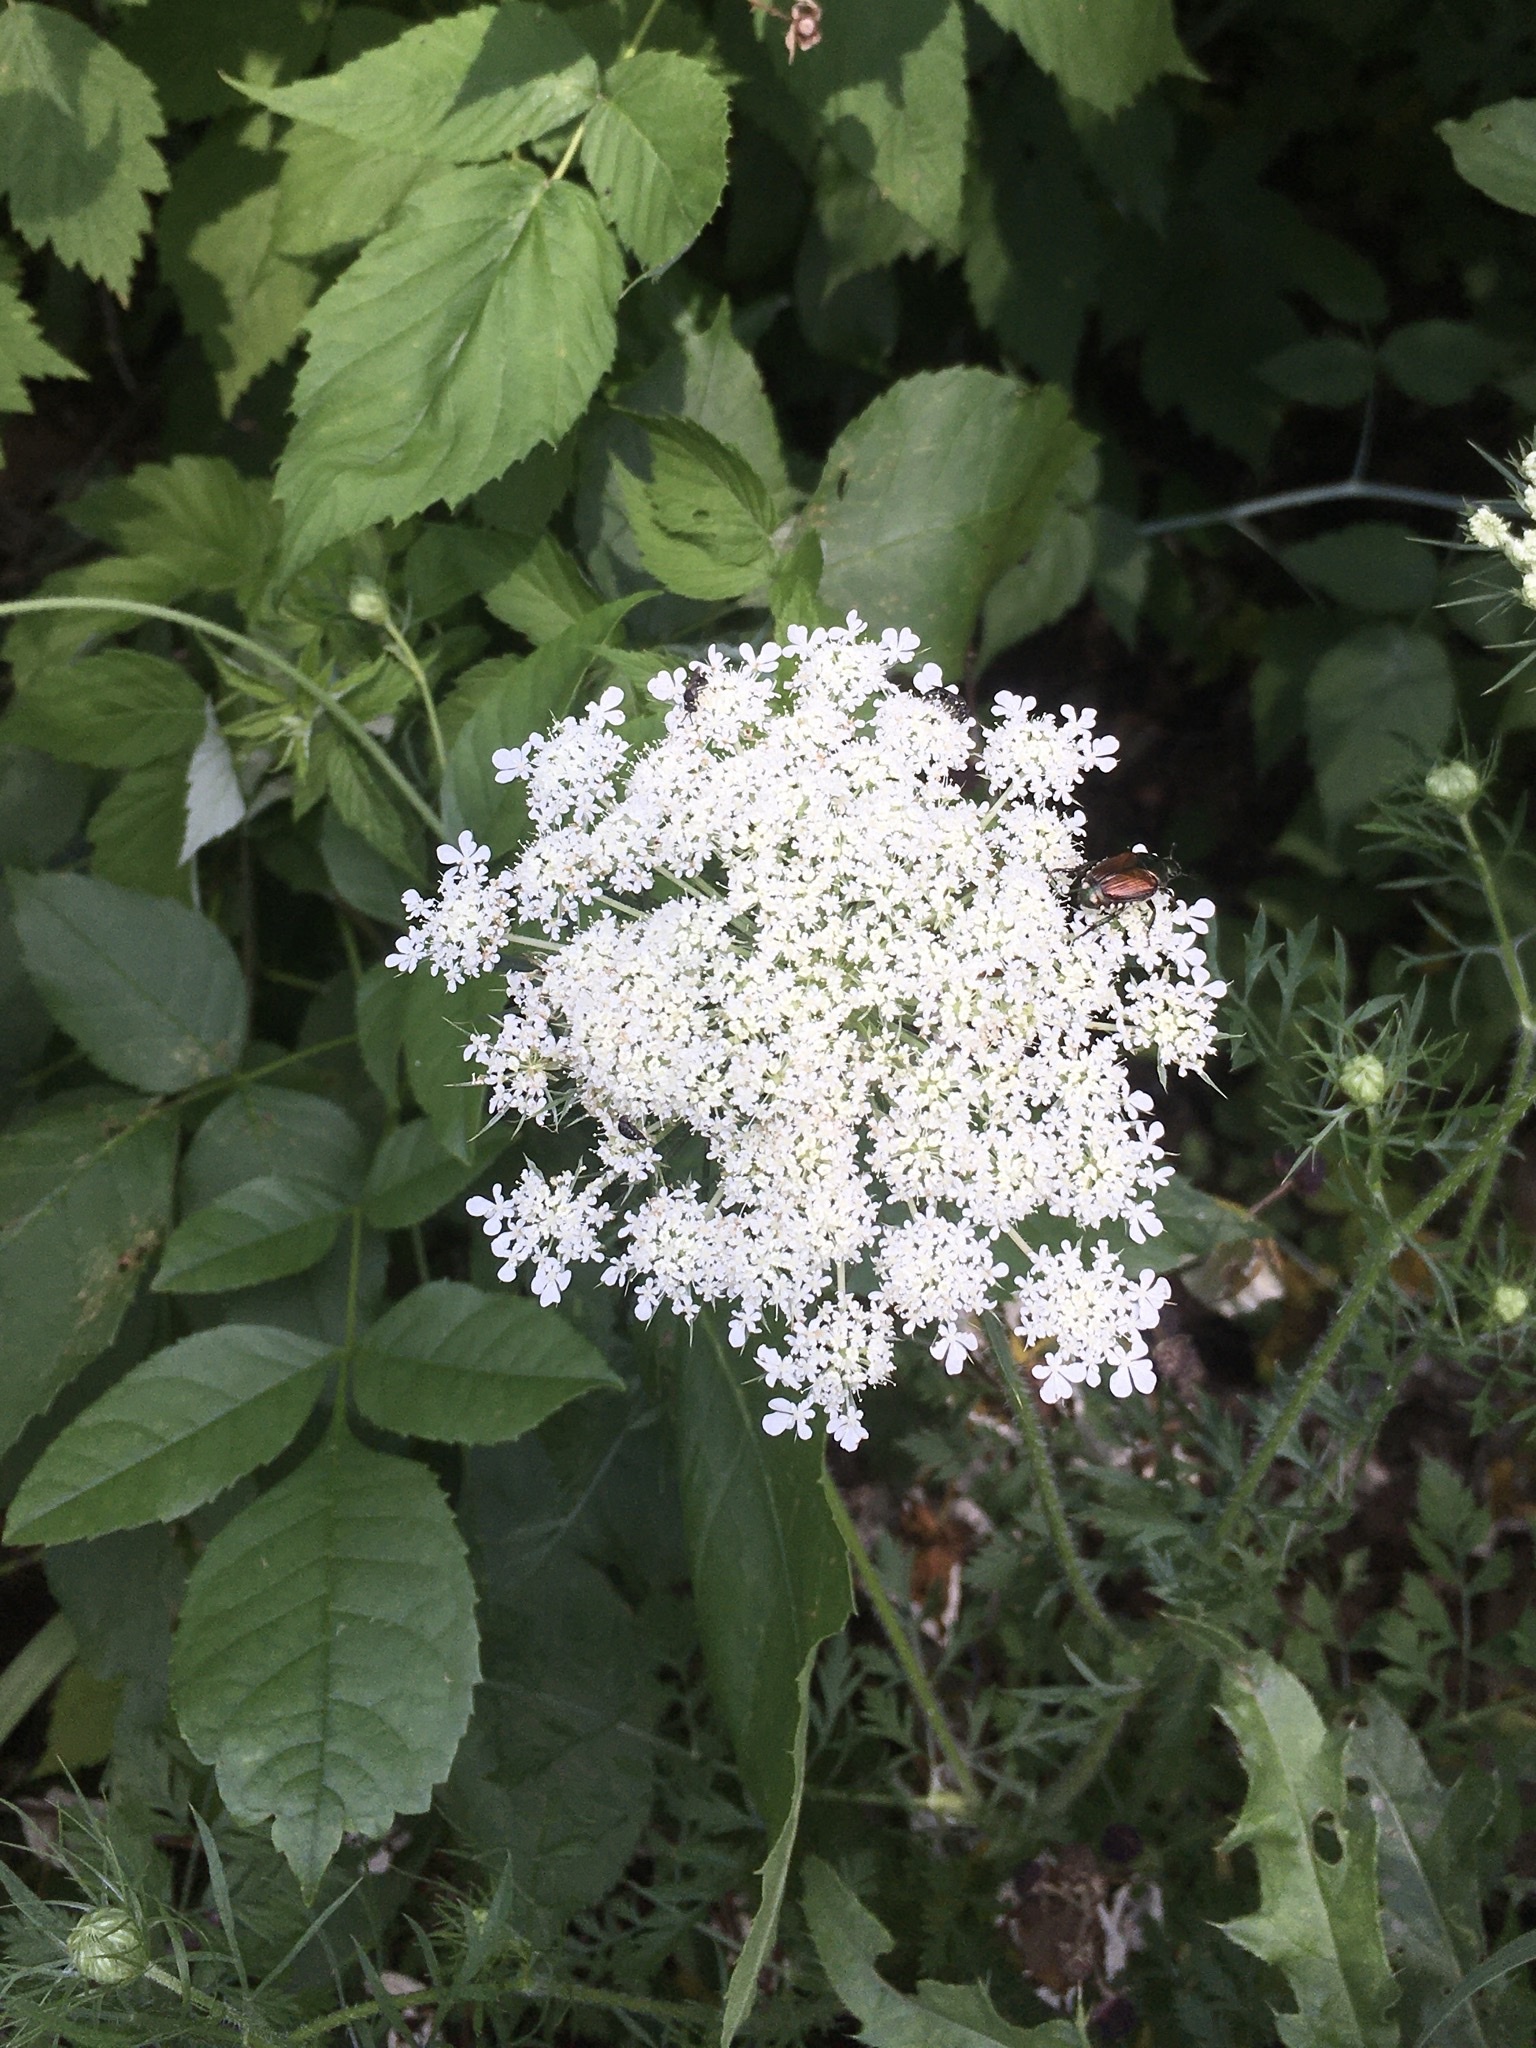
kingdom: Plantae
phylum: Tracheophyta
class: Magnoliopsida
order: Apiales
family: Apiaceae
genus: Daucus
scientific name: Daucus carota
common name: Wild carrot
